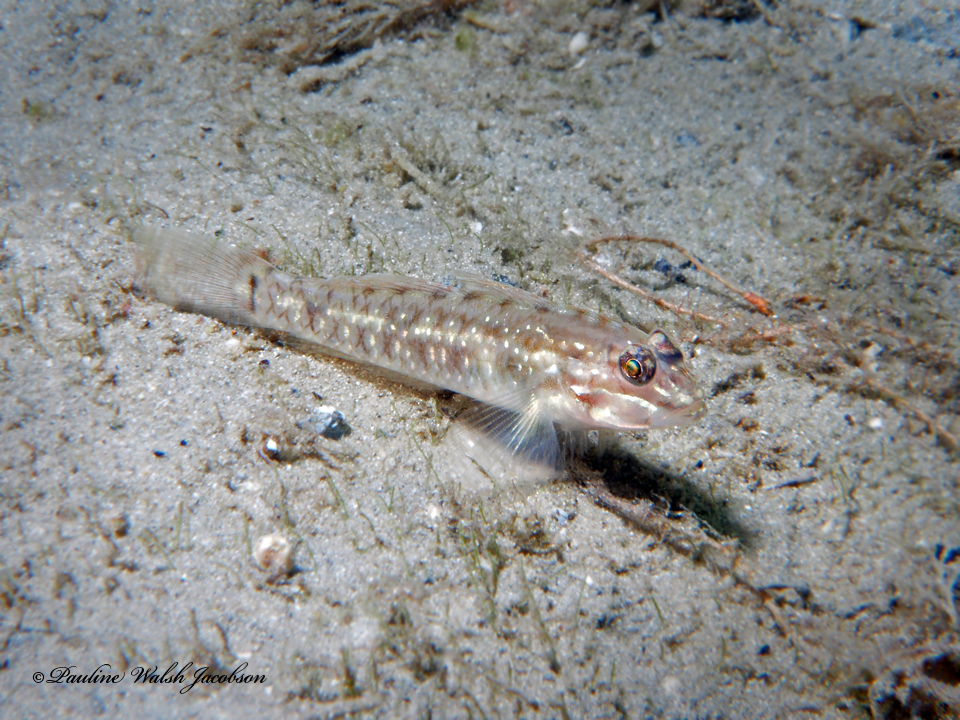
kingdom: Animalia
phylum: Chordata
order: Perciformes
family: Gobiidae
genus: Coryphopterus
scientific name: Coryphopterus glaucofraenum
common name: Bridled goby
